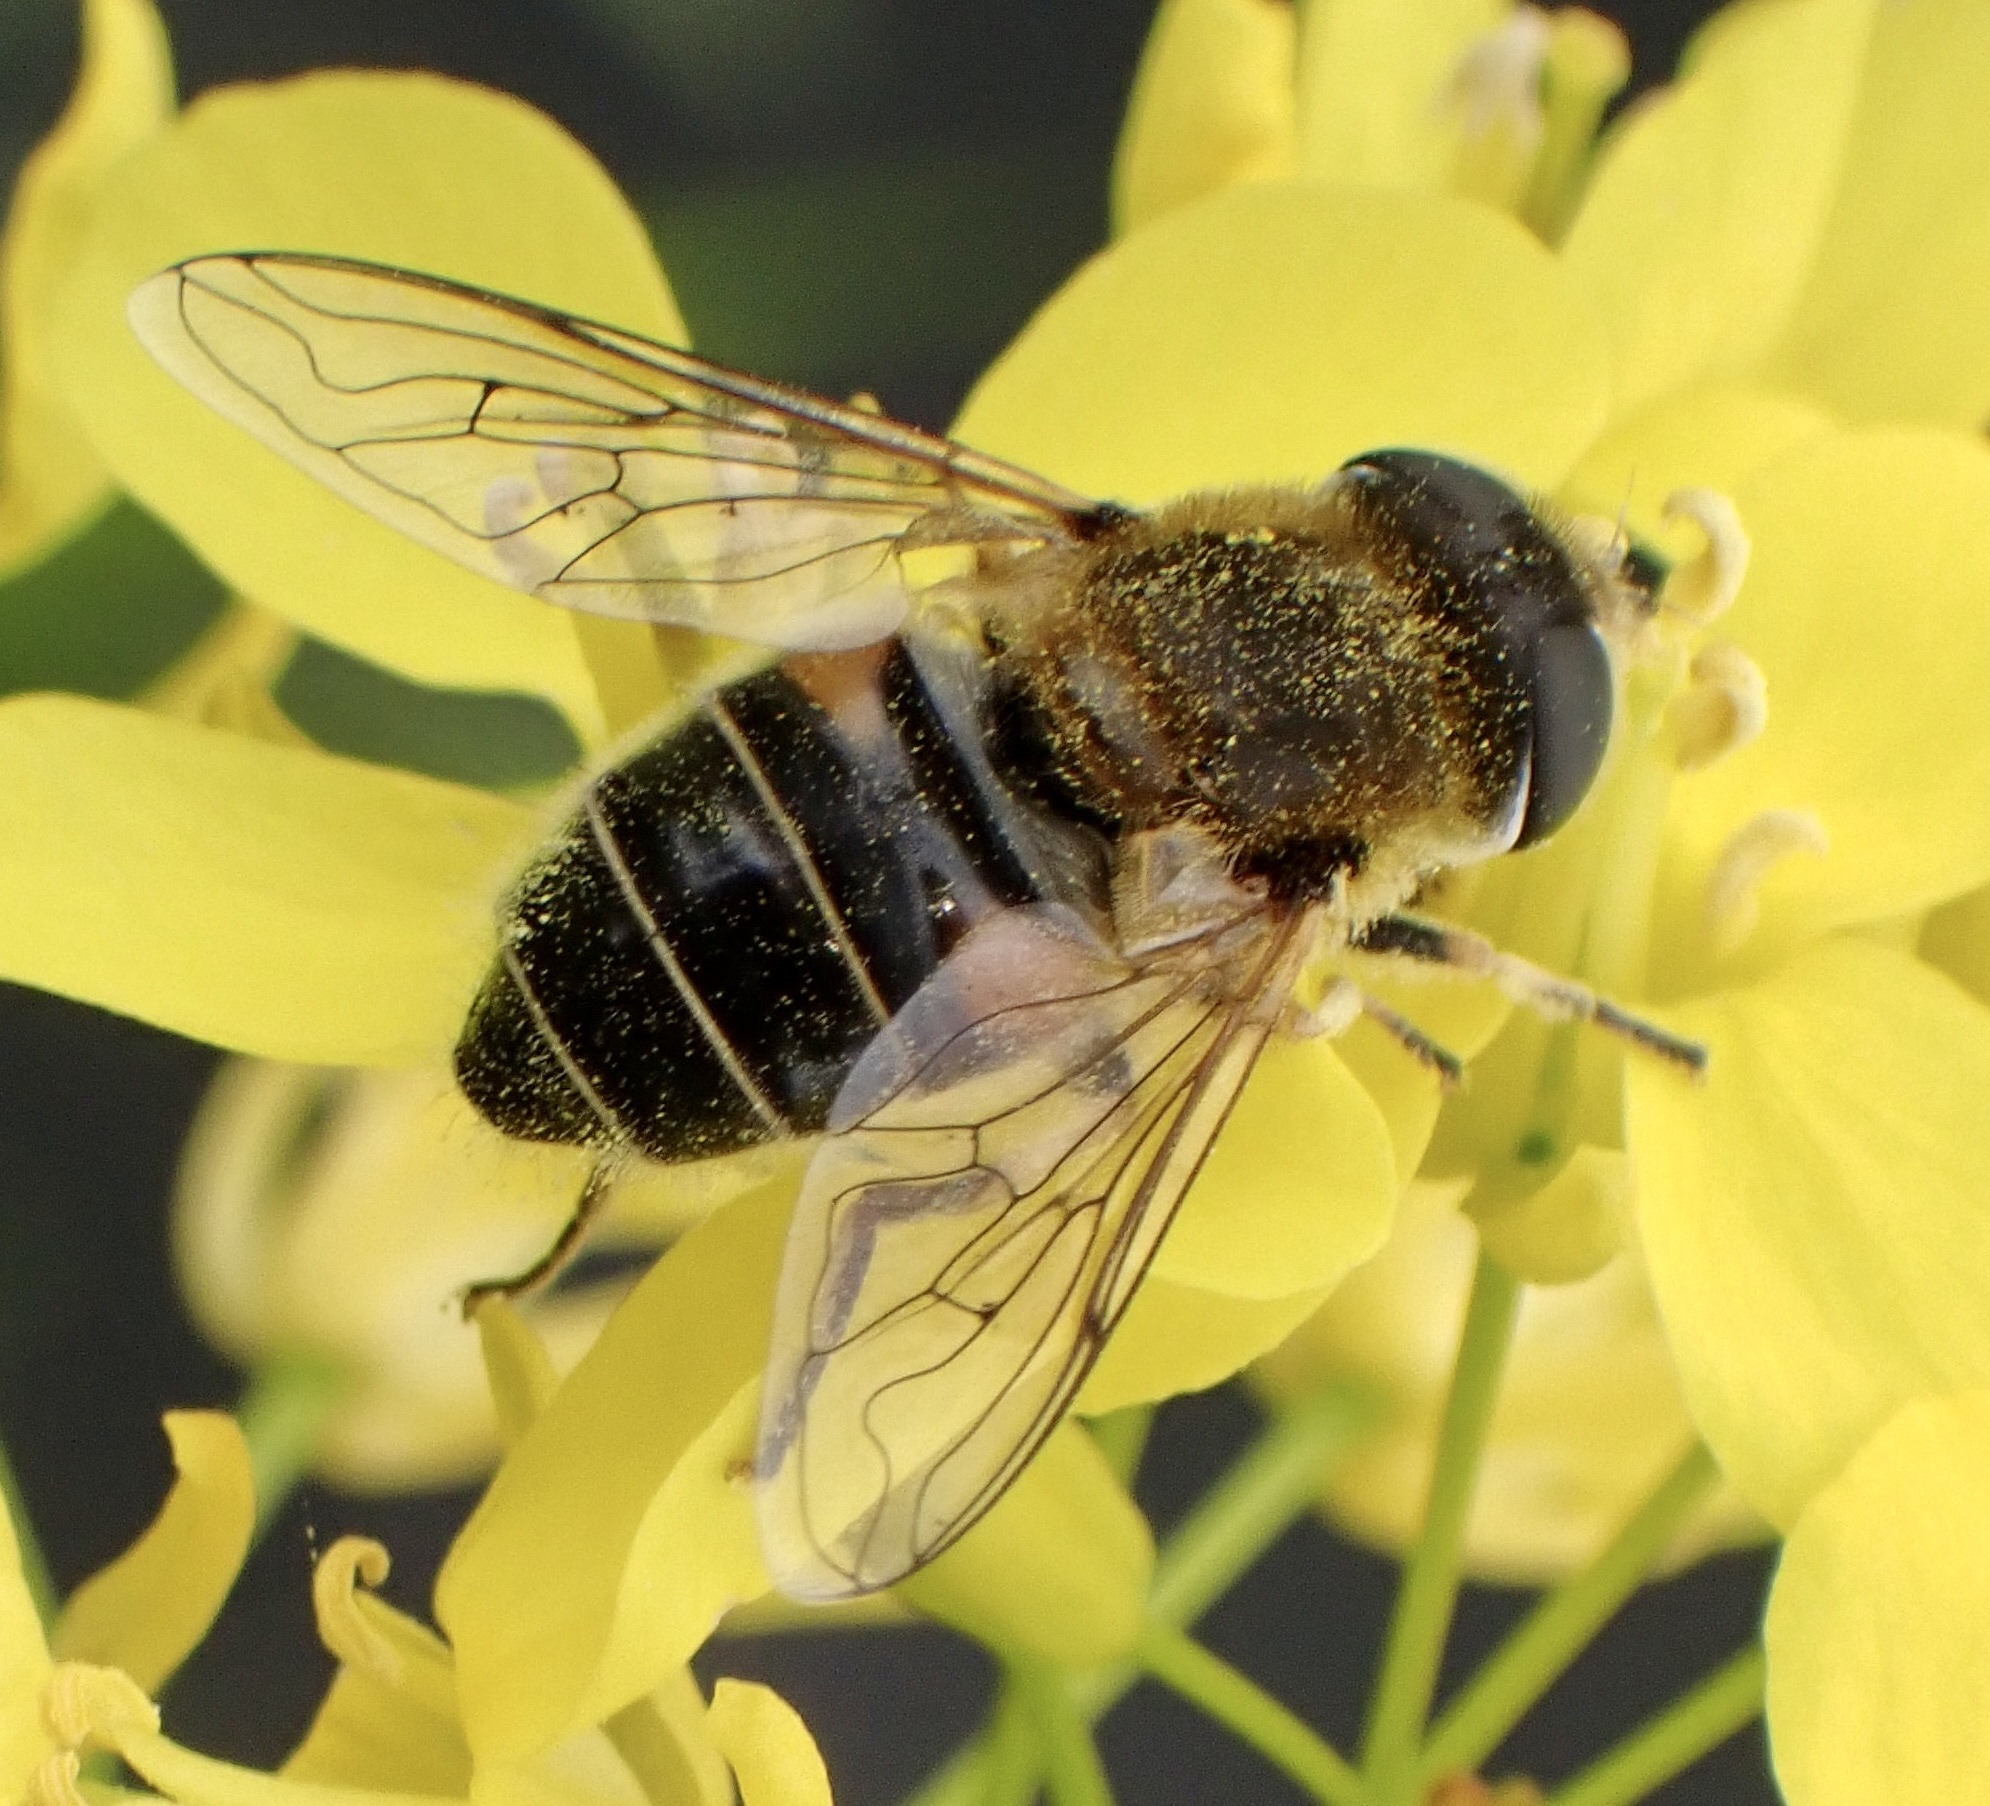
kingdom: Animalia
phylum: Arthropoda
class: Insecta
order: Diptera
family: Syrphidae
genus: Eristalis
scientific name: Eristalis nemorum
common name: Orange-spined drone fly
